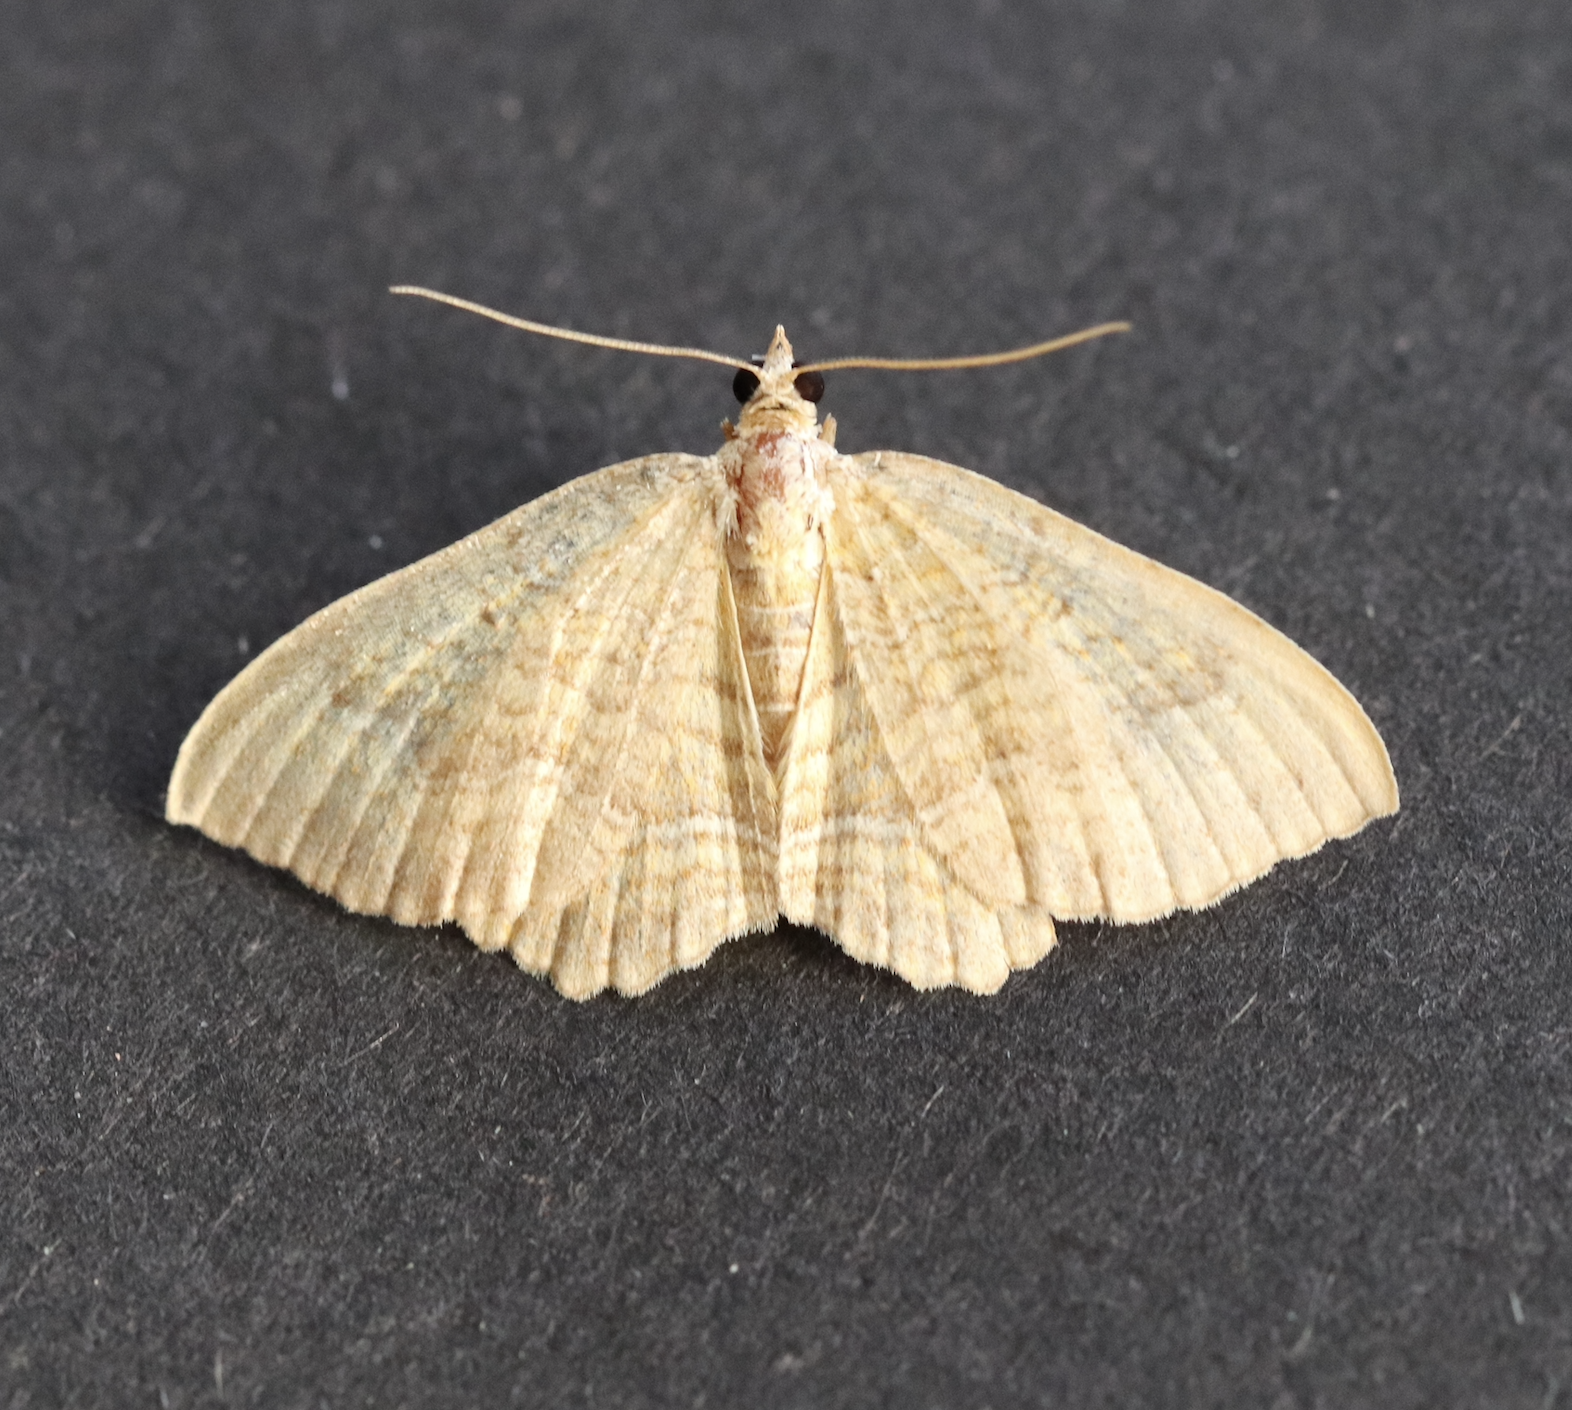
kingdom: Animalia
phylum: Arthropoda
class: Insecta
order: Lepidoptera
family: Geometridae
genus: Camptogramma
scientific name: Camptogramma bilineata
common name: Yellow shell
